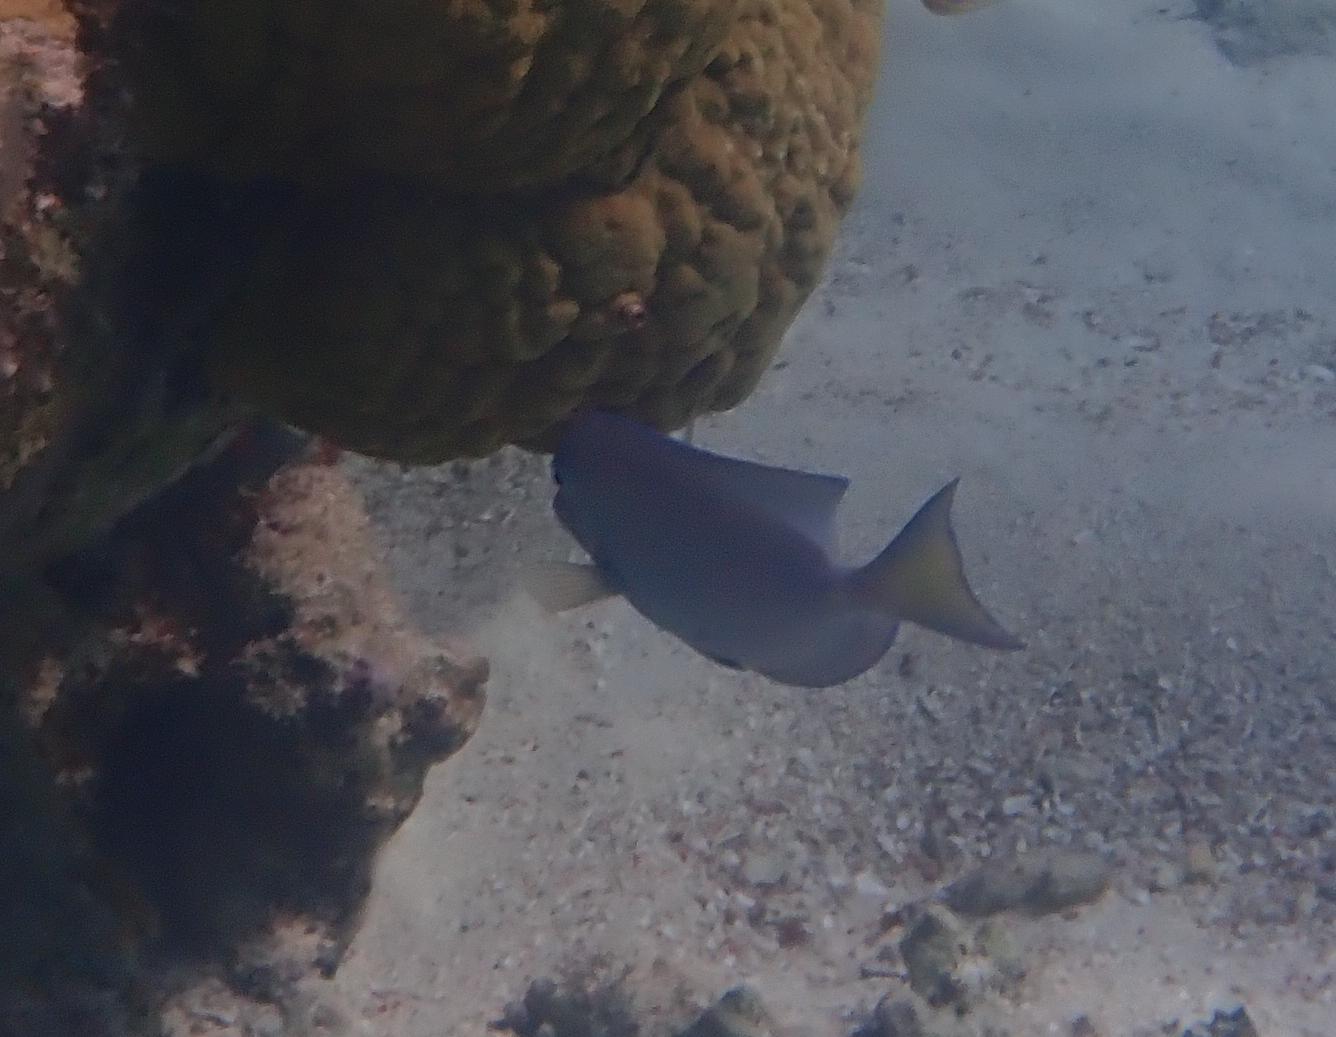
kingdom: Animalia
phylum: Chordata
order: Perciformes
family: Acanthuridae
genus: Acanthurus
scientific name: Acanthurus coeruleus
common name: Blue tang
